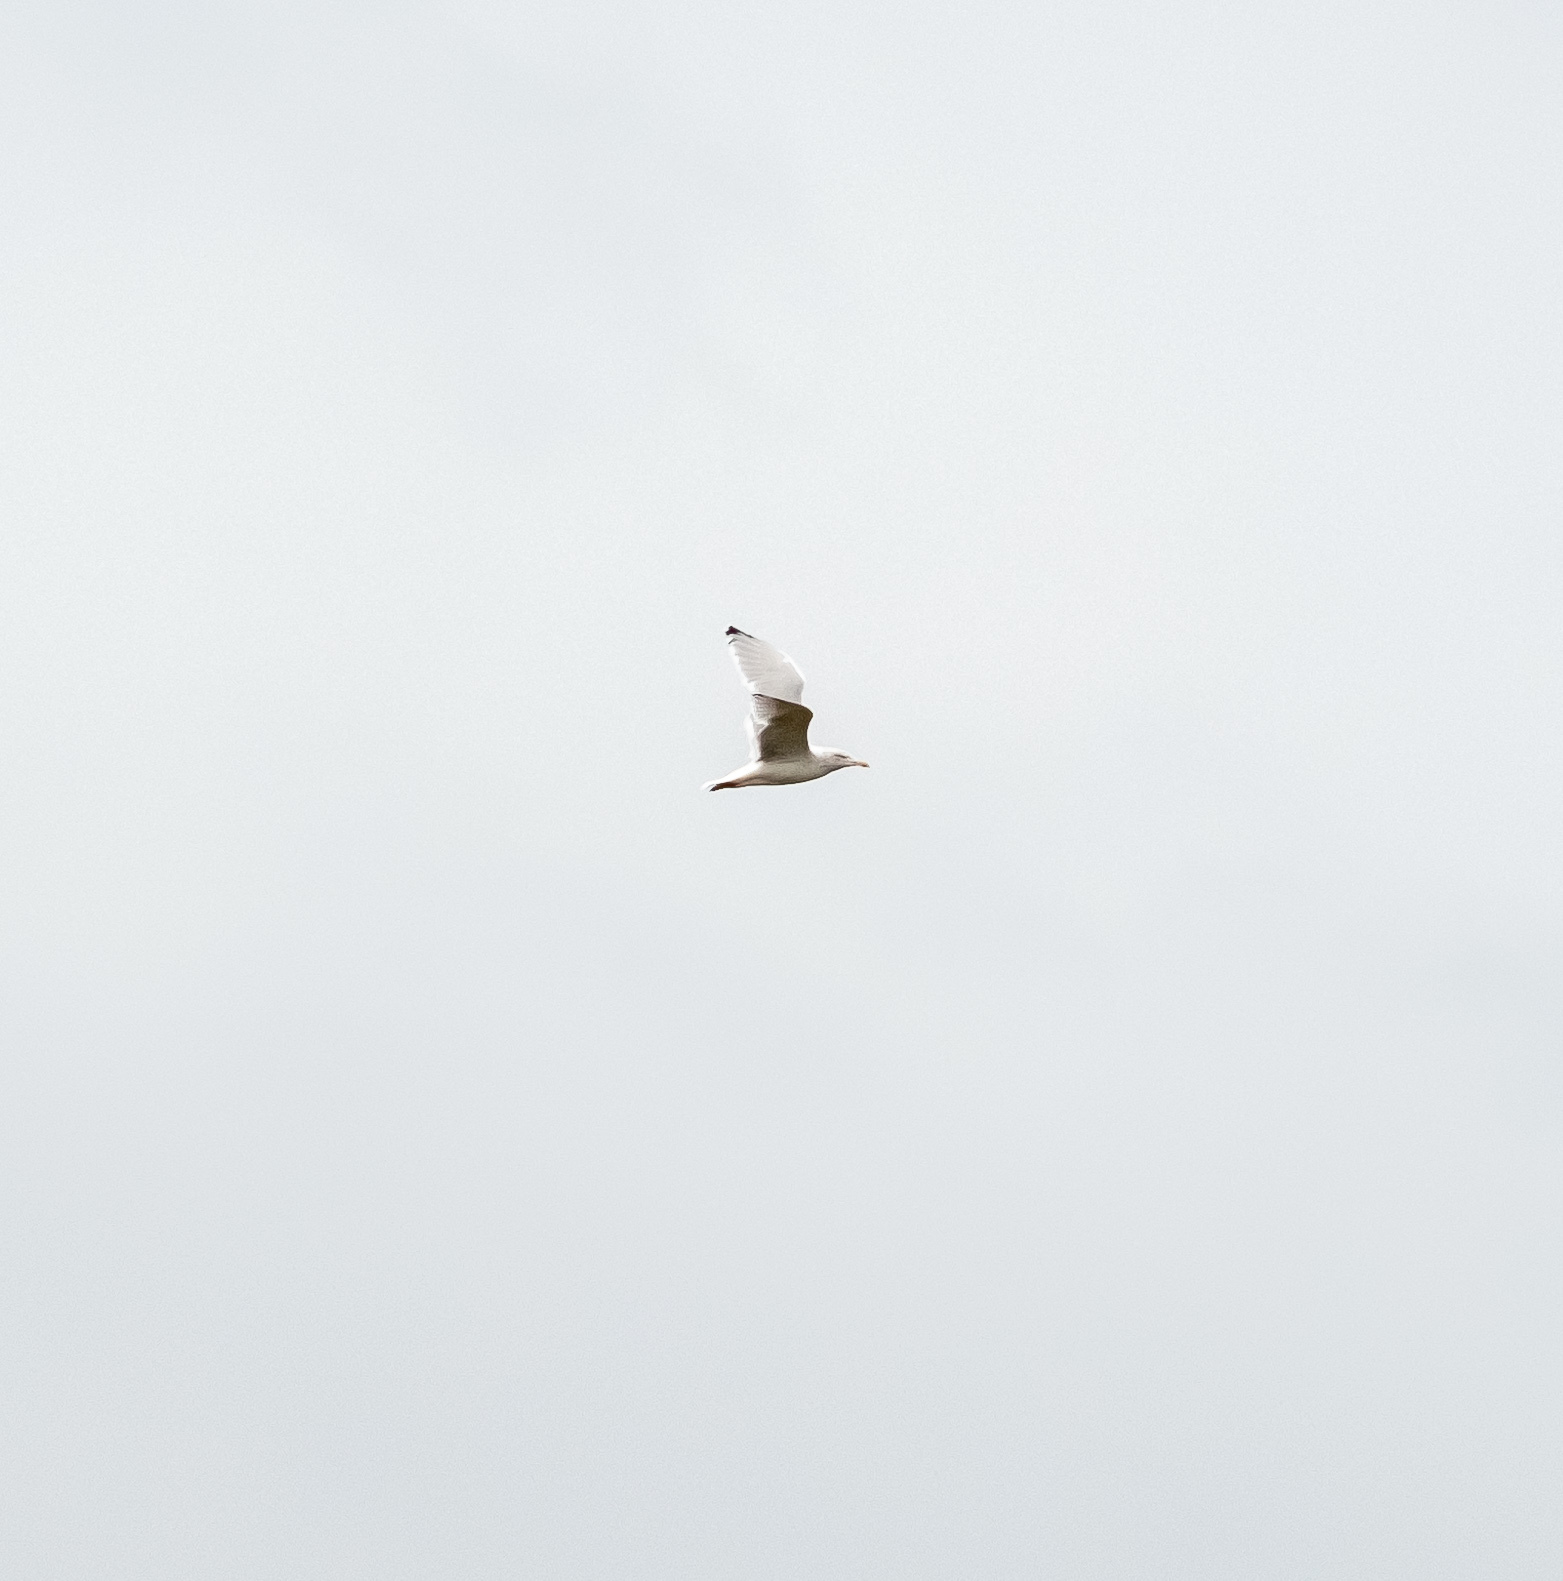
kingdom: Animalia
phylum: Chordata
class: Aves
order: Charadriiformes
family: Laridae
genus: Larus
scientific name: Larus argentatus
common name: Herring gull
